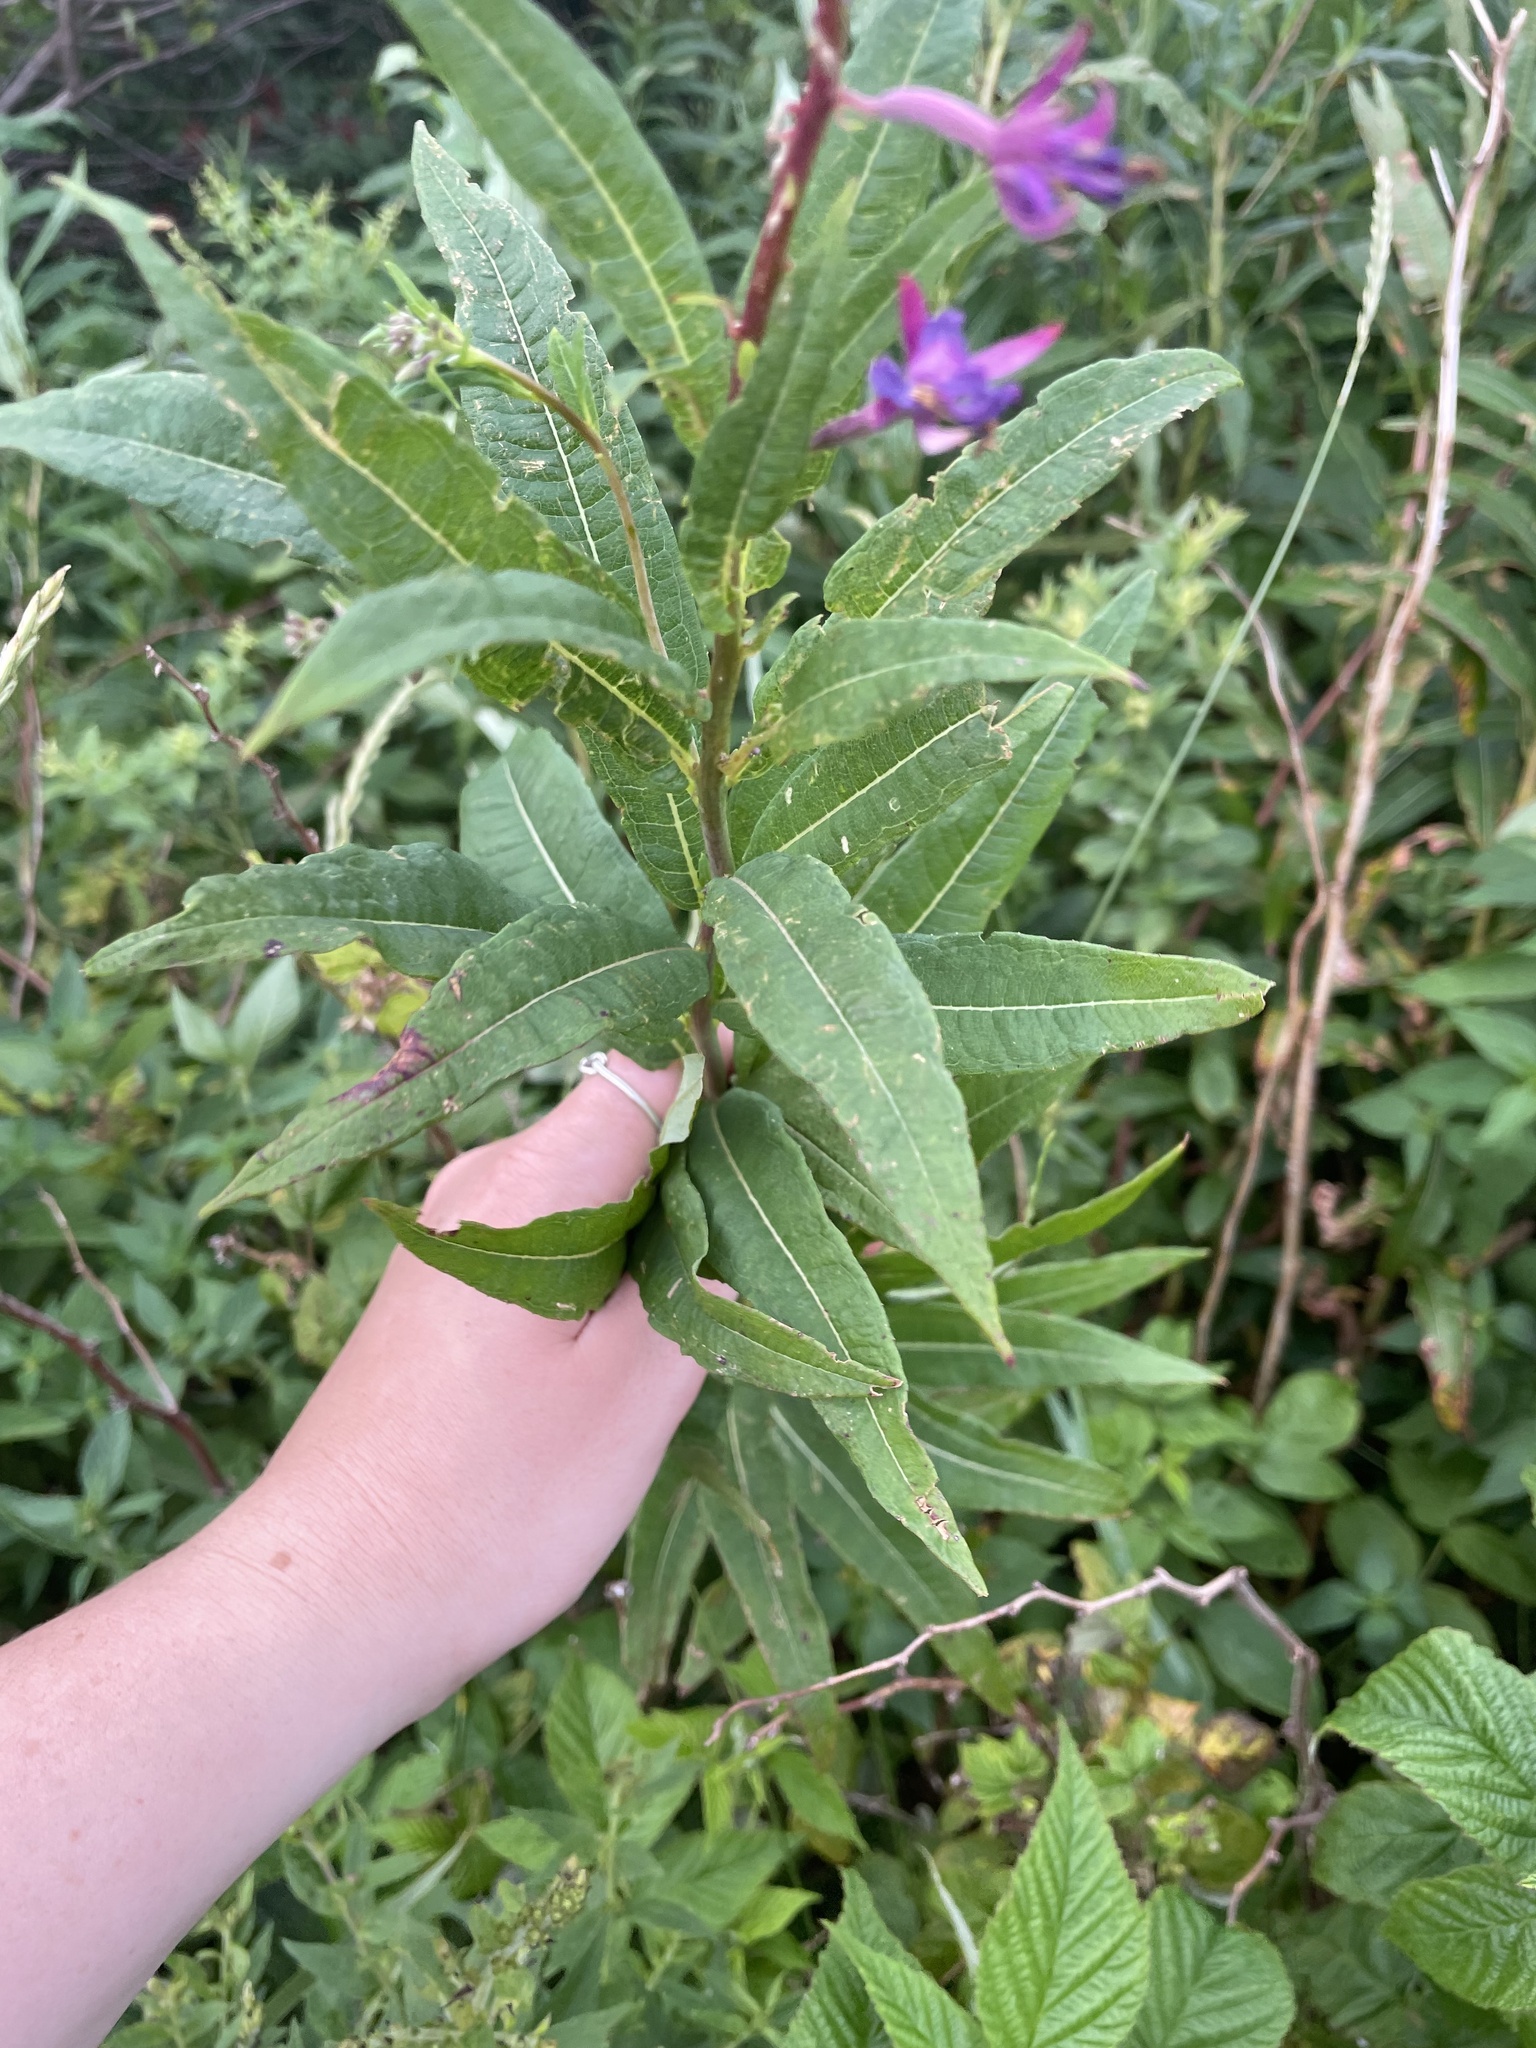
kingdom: Plantae
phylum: Tracheophyta
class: Magnoliopsida
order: Myrtales
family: Onagraceae
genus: Chamaenerion
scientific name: Chamaenerion angustifolium
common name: Fireweed
